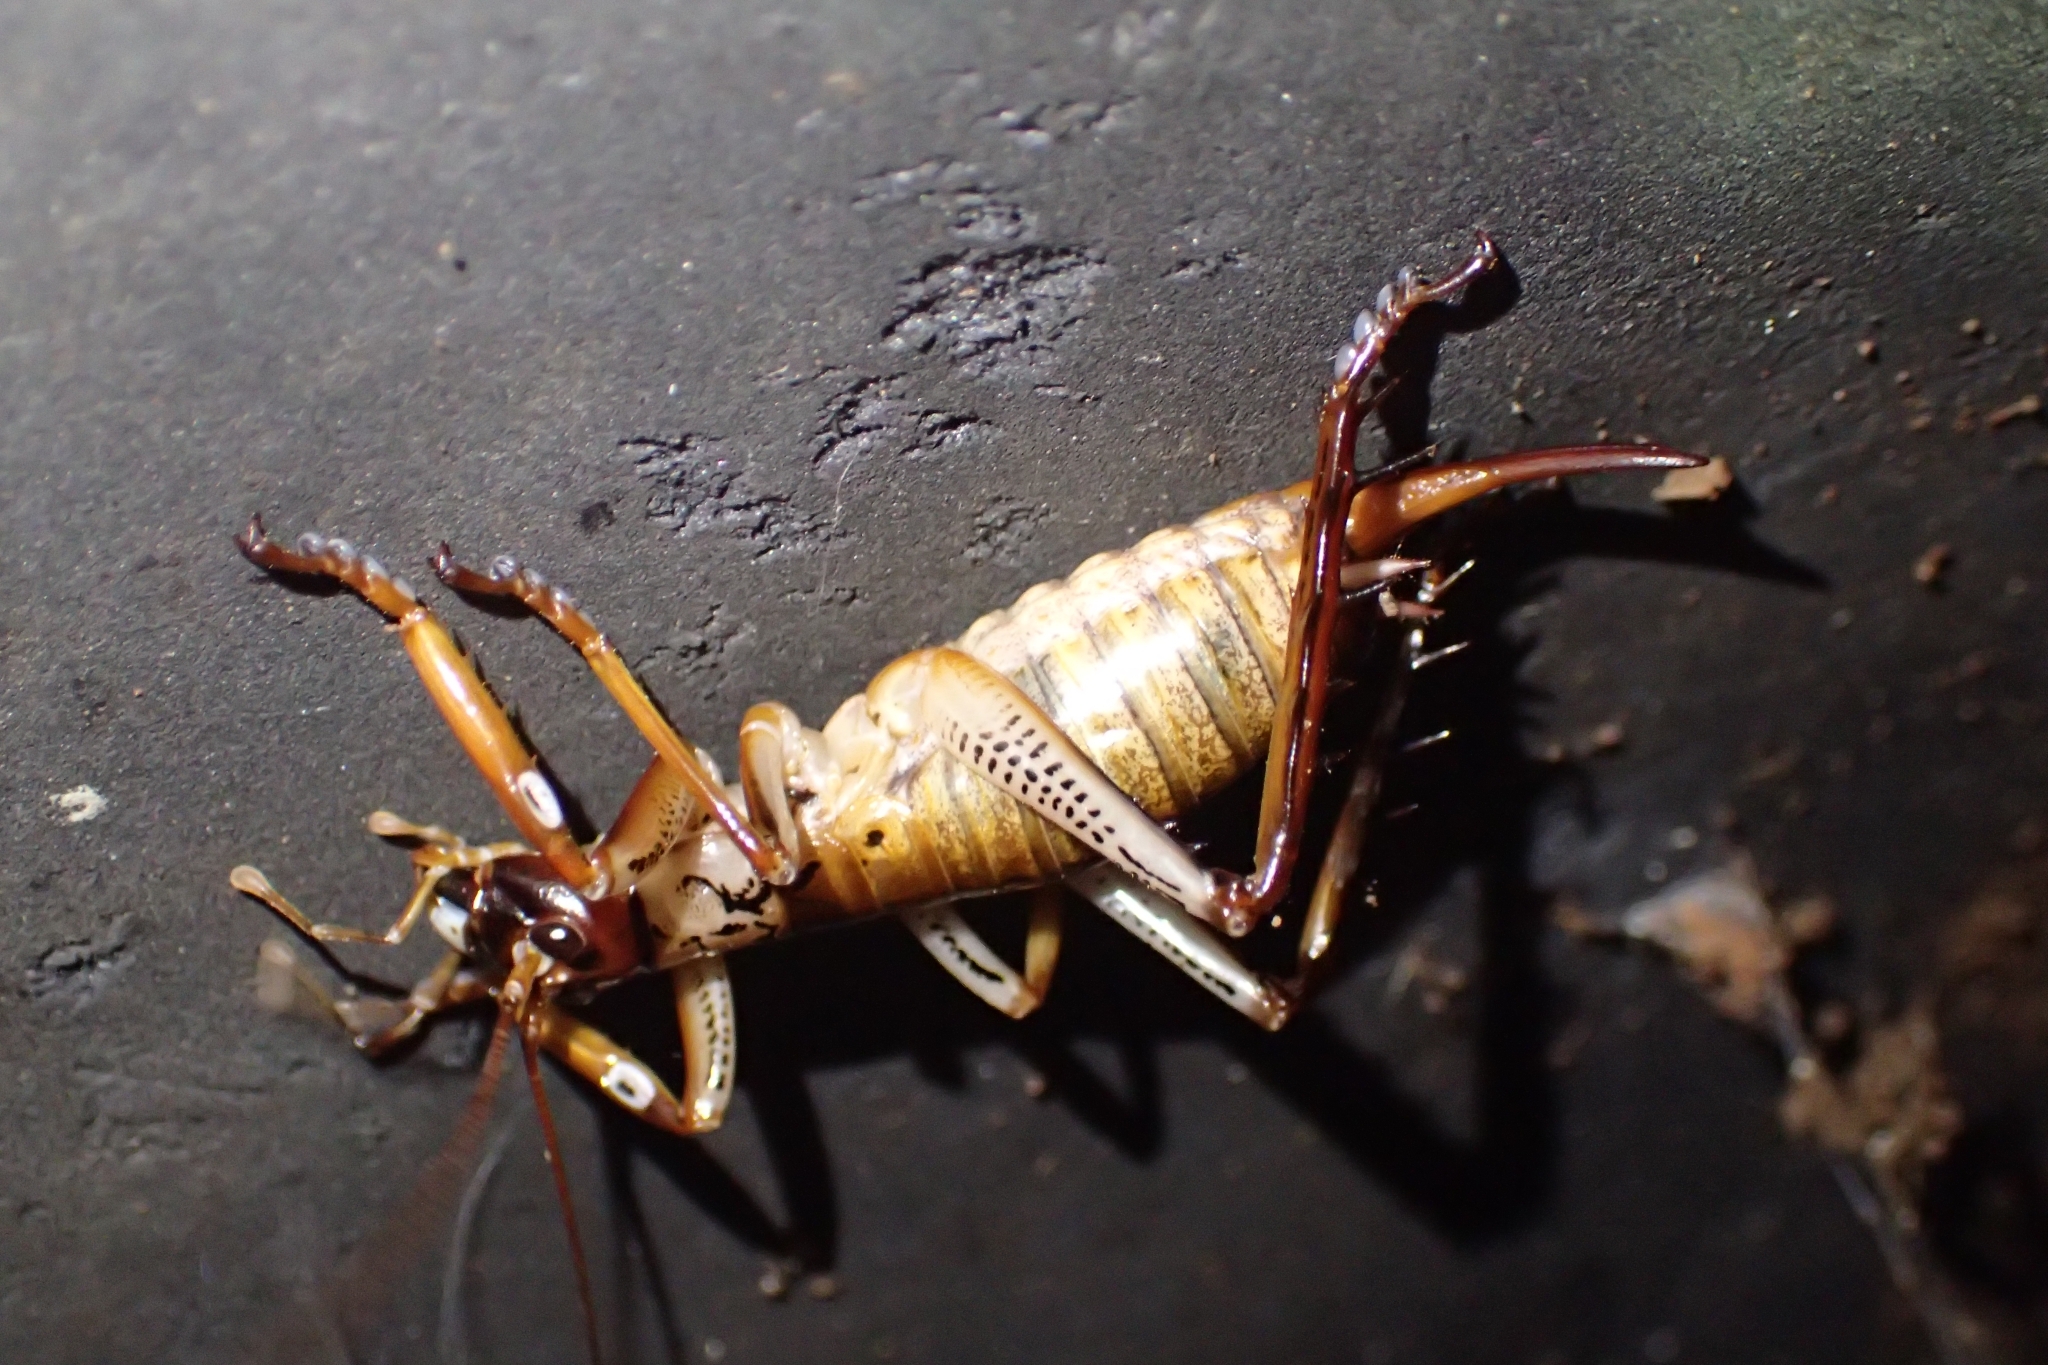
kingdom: Animalia
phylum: Arthropoda
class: Insecta
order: Orthoptera
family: Anostostomatidae
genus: Hemideina
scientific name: Hemideina thoracica
